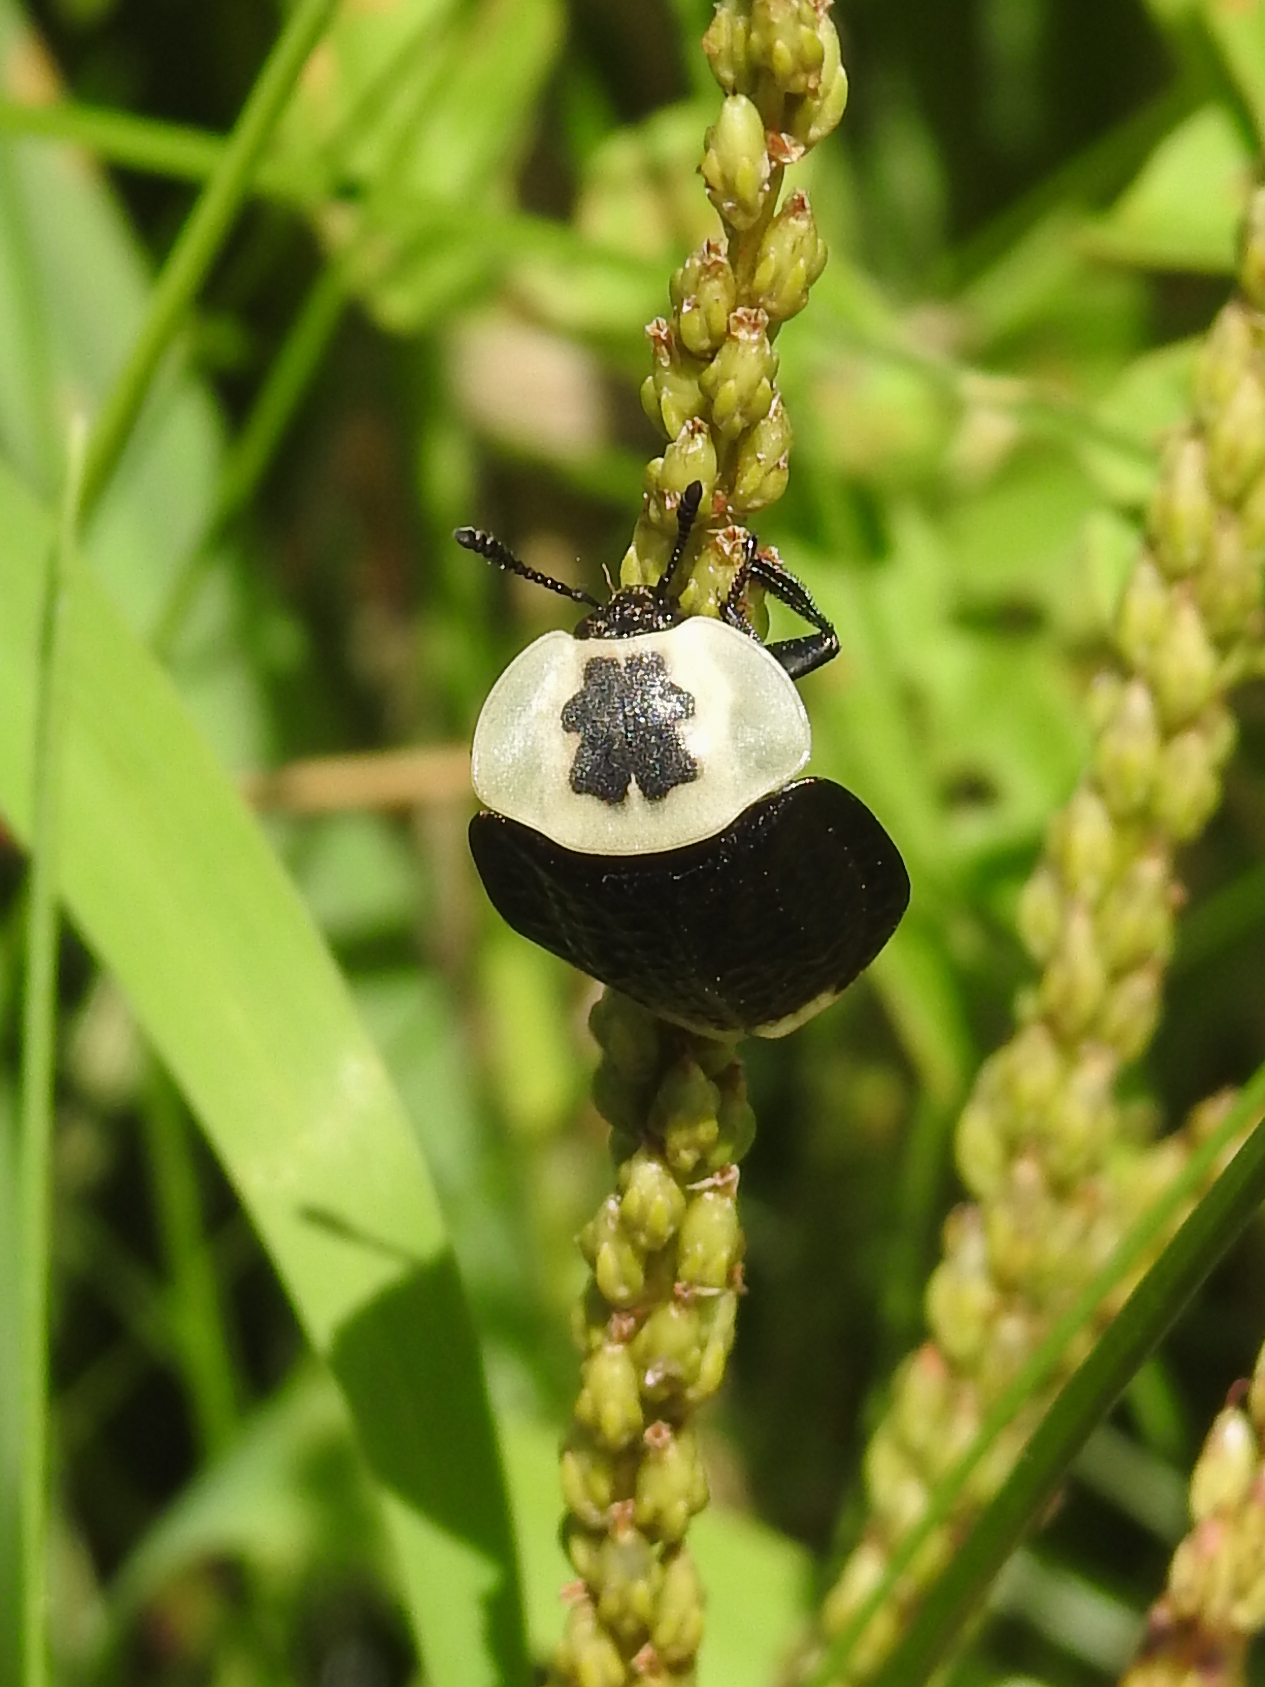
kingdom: Animalia
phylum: Arthropoda
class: Insecta
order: Coleoptera
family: Staphylinidae
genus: Necrophila
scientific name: Necrophila americana
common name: American carrion beetle
